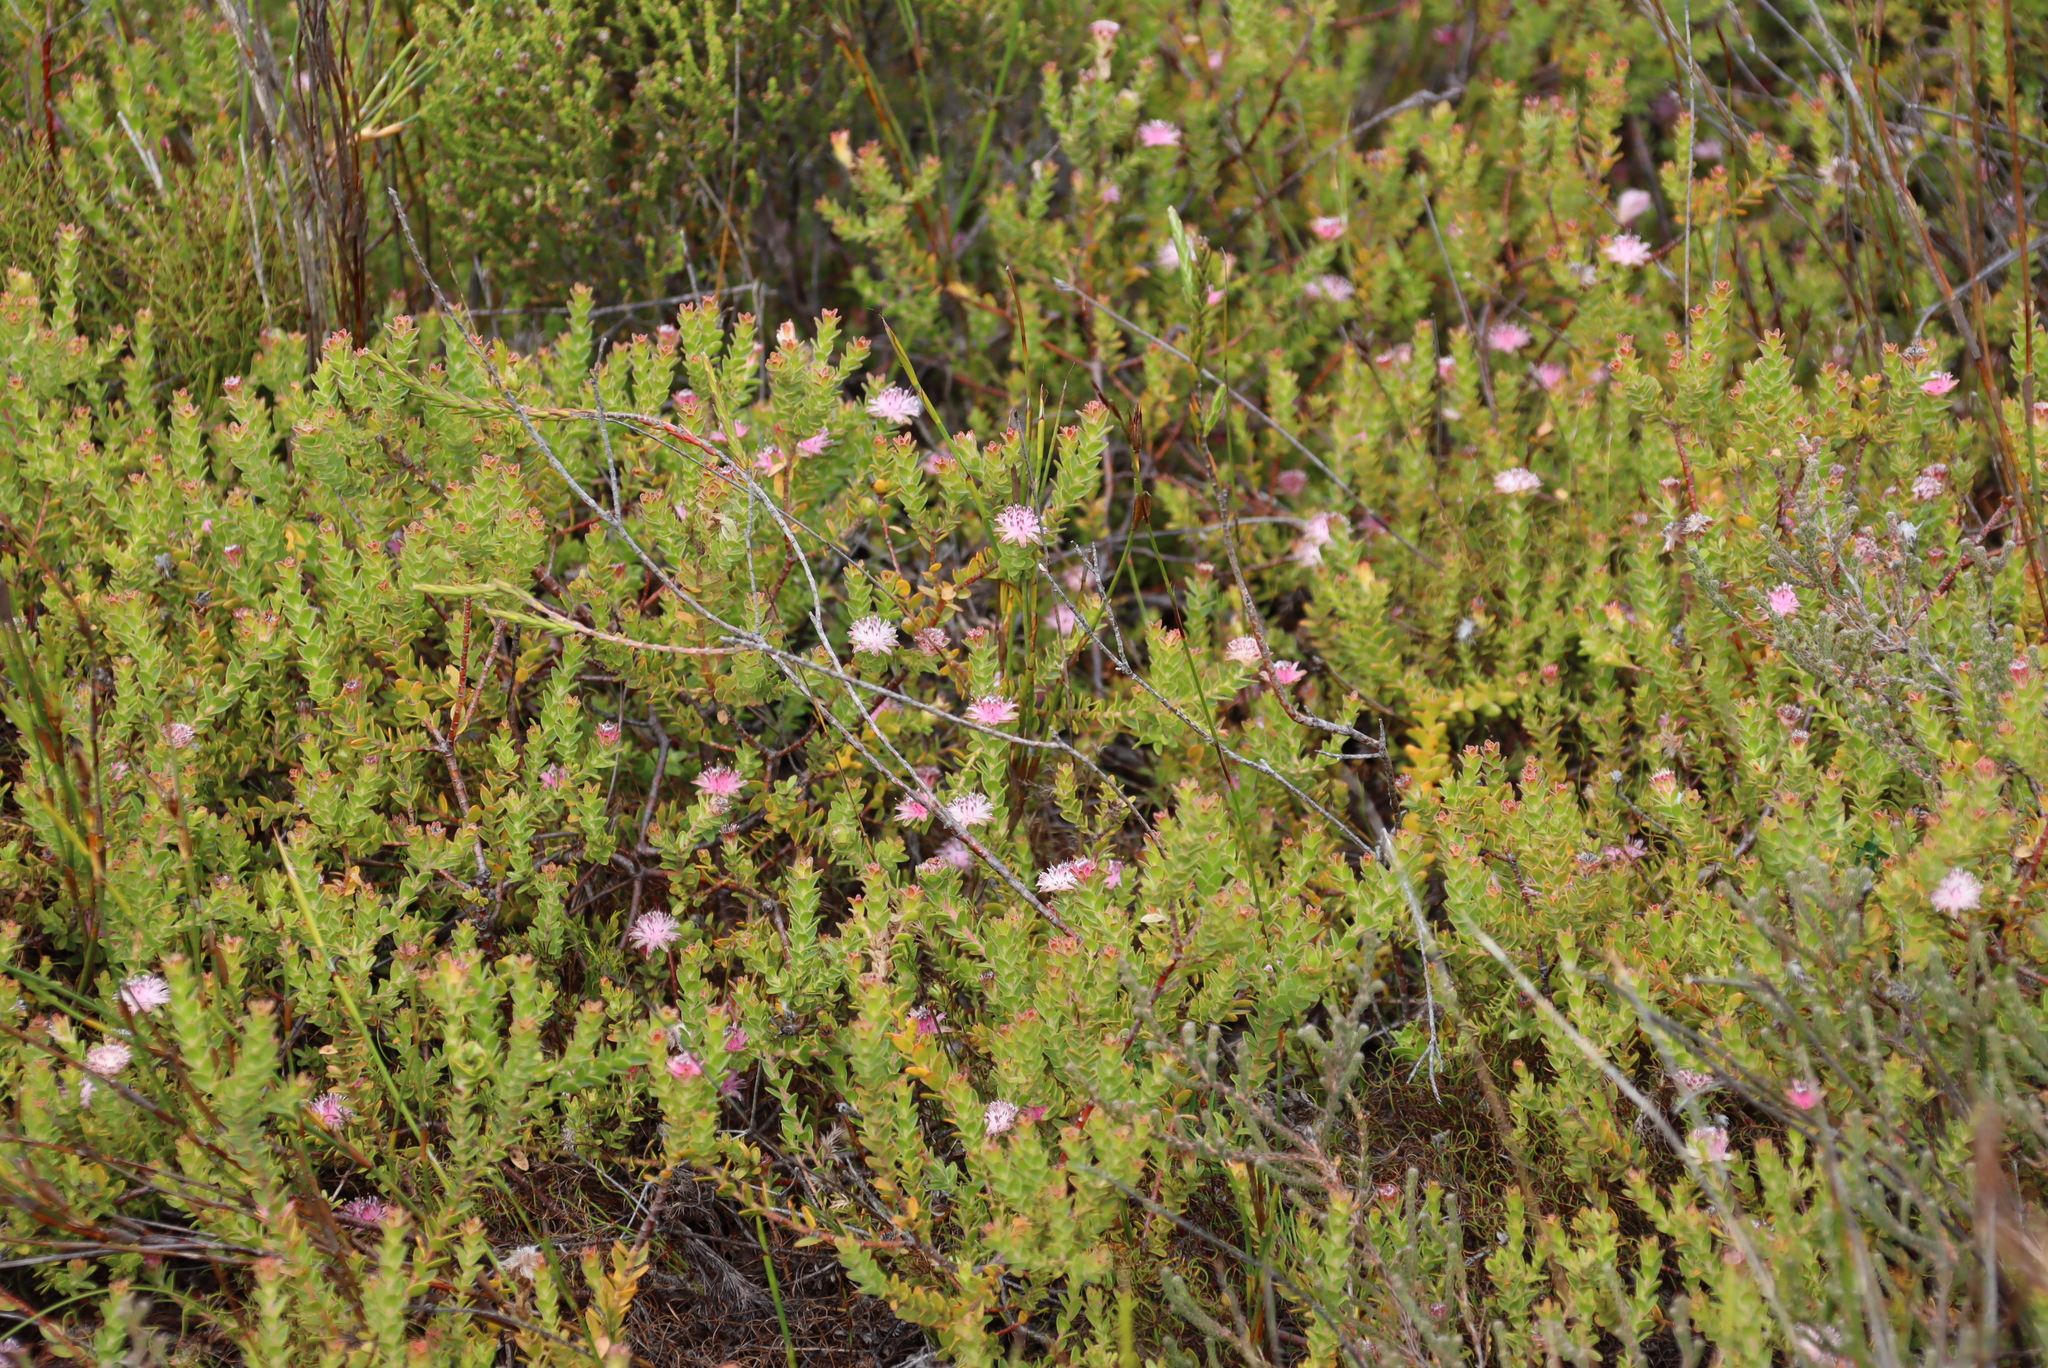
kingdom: Plantae
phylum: Tracheophyta
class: Magnoliopsida
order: Proteales
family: Proteaceae
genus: Diastella
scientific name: Diastella divaricata
